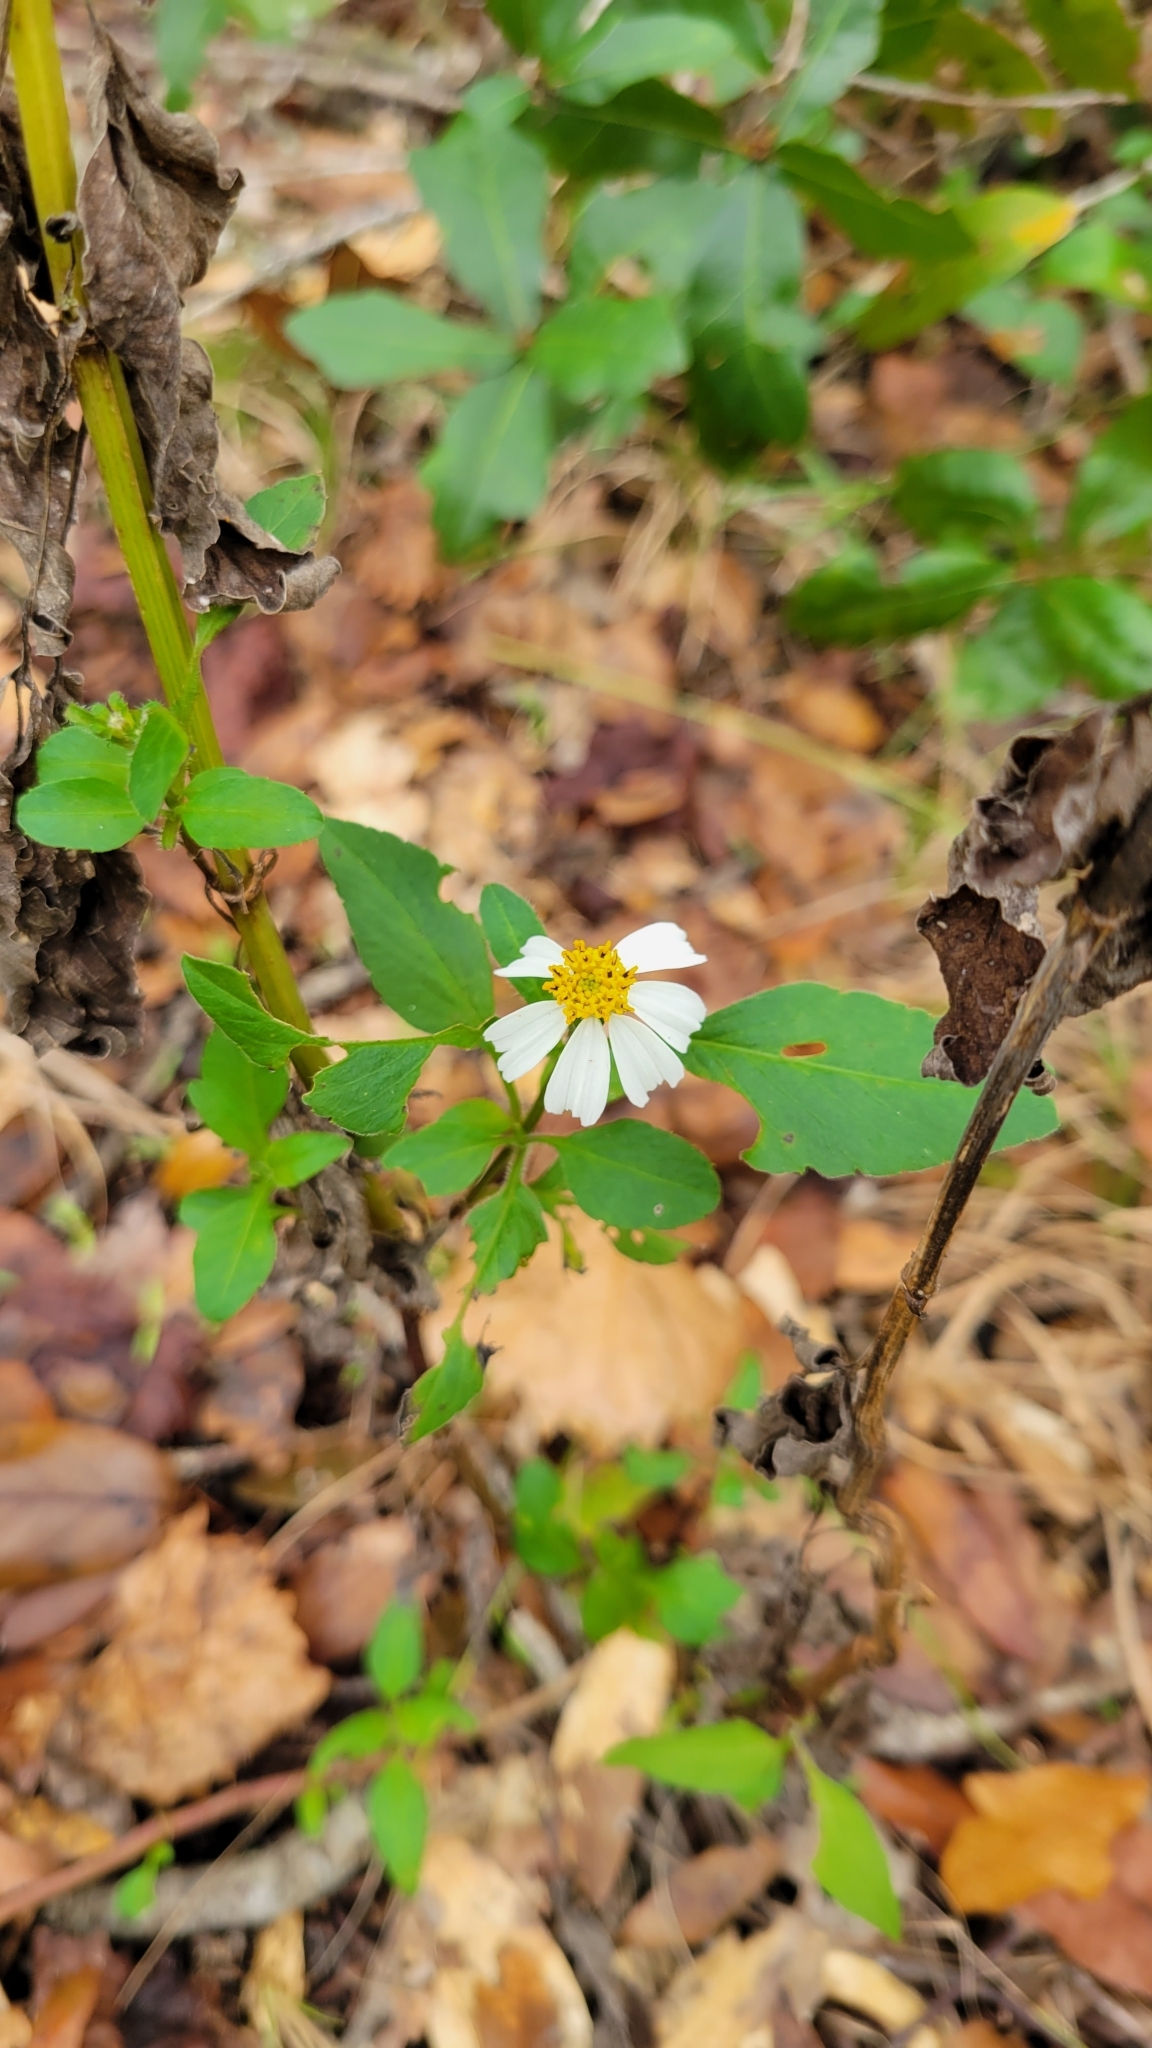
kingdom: Plantae
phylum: Tracheophyta
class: Magnoliopsida
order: Asterales
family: Asteraceae
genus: Bidens
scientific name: Bidens alba
